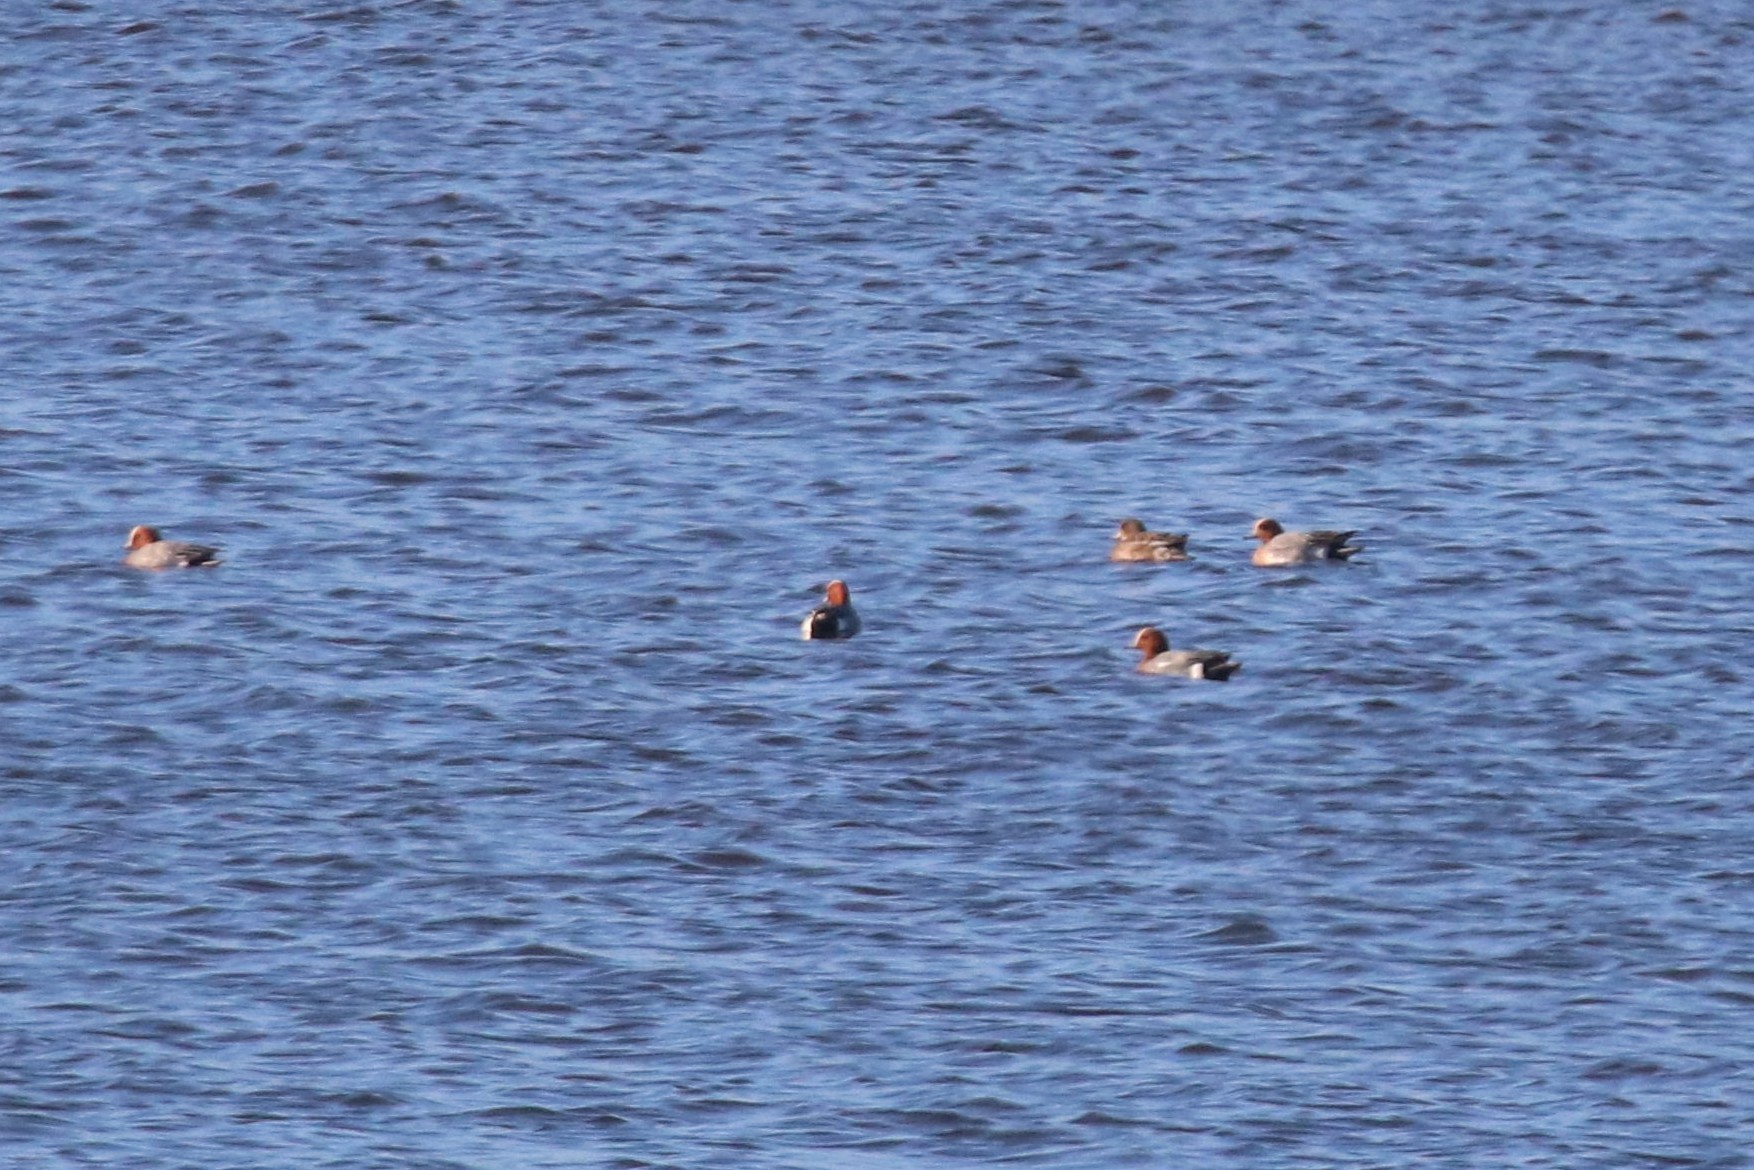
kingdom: Animalia
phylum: Chordata
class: Aves
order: Anseriformes
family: Anatidae
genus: Mareca
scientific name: Mareca penelope
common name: Eurasian wigeon
